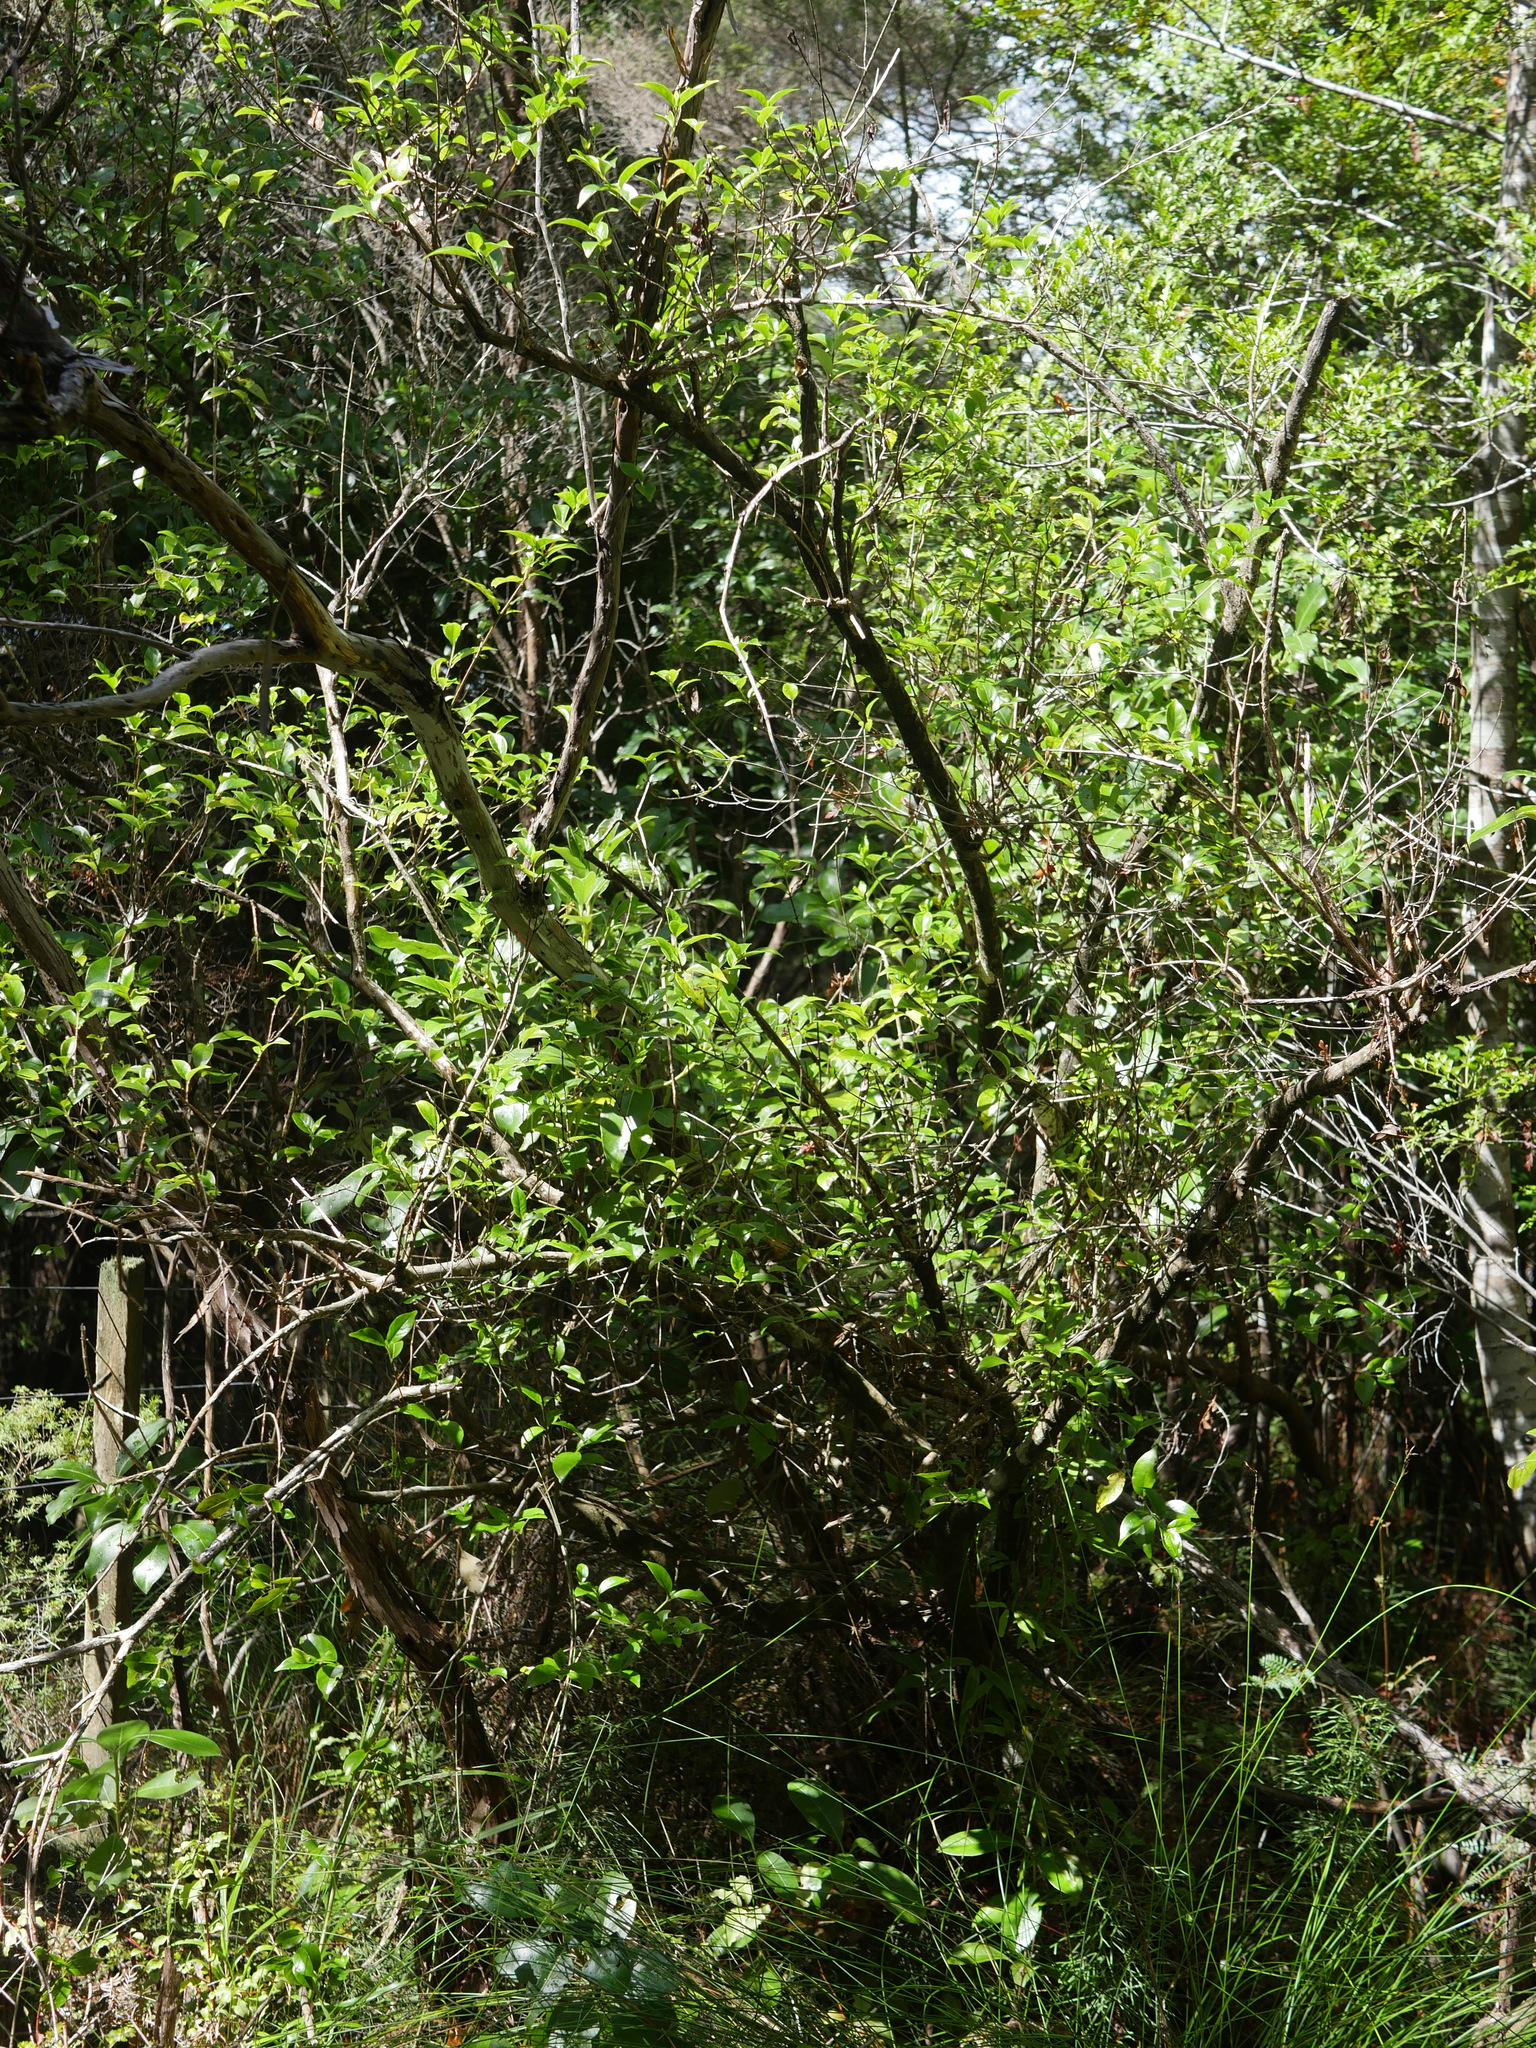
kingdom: Plantae
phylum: Tracheophyta
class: Magnoliopsida
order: Gentianales
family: Loganiaceae
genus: Geniostoma
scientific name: Geniostoma ligustrifolium
